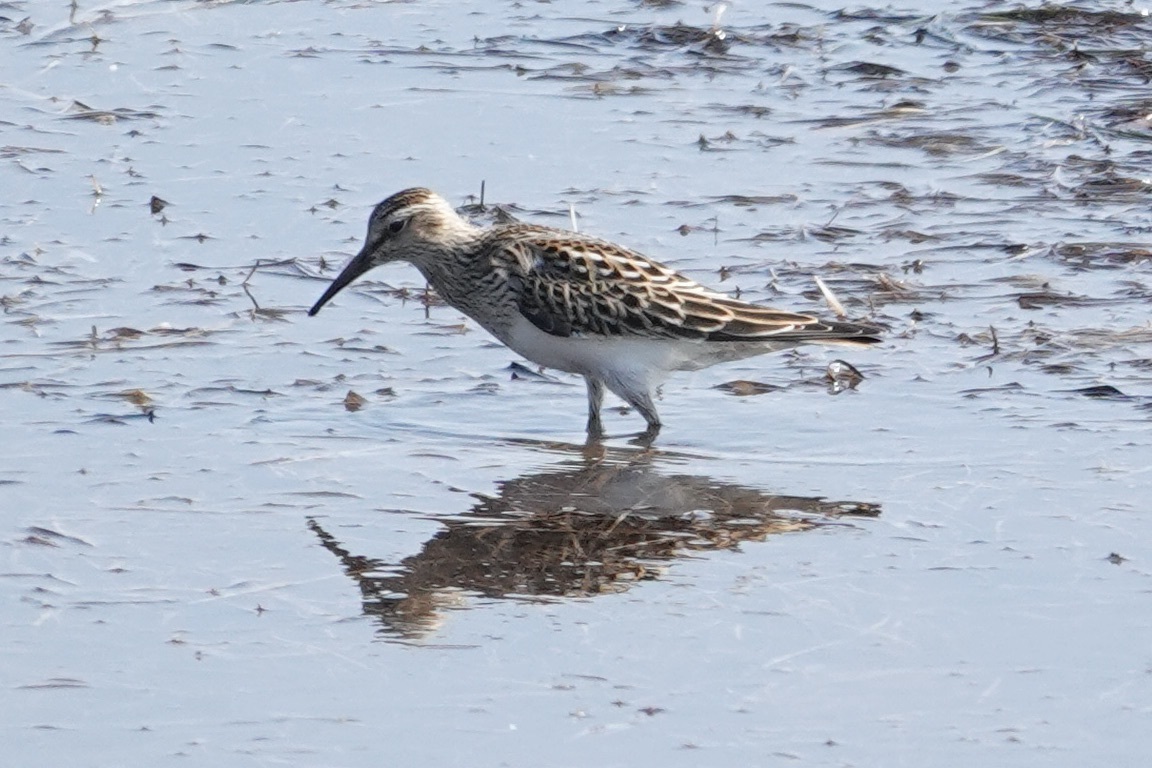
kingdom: Animalia
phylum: Chordata
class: Aves
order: Charadriiformes
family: Scolopacidae
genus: Calidris
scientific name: Calidris melanotos
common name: Pectoral sandpiper
